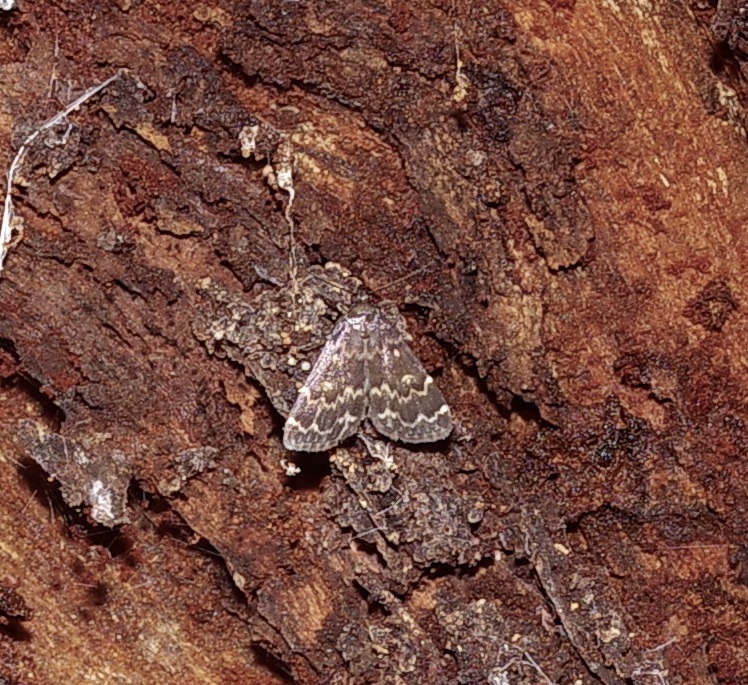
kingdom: Animalia
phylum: Arthropoda
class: Insecta
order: Lepidoptera
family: Erebidae
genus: Idia
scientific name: Idia lubricalis
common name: Twin-striped tabby
